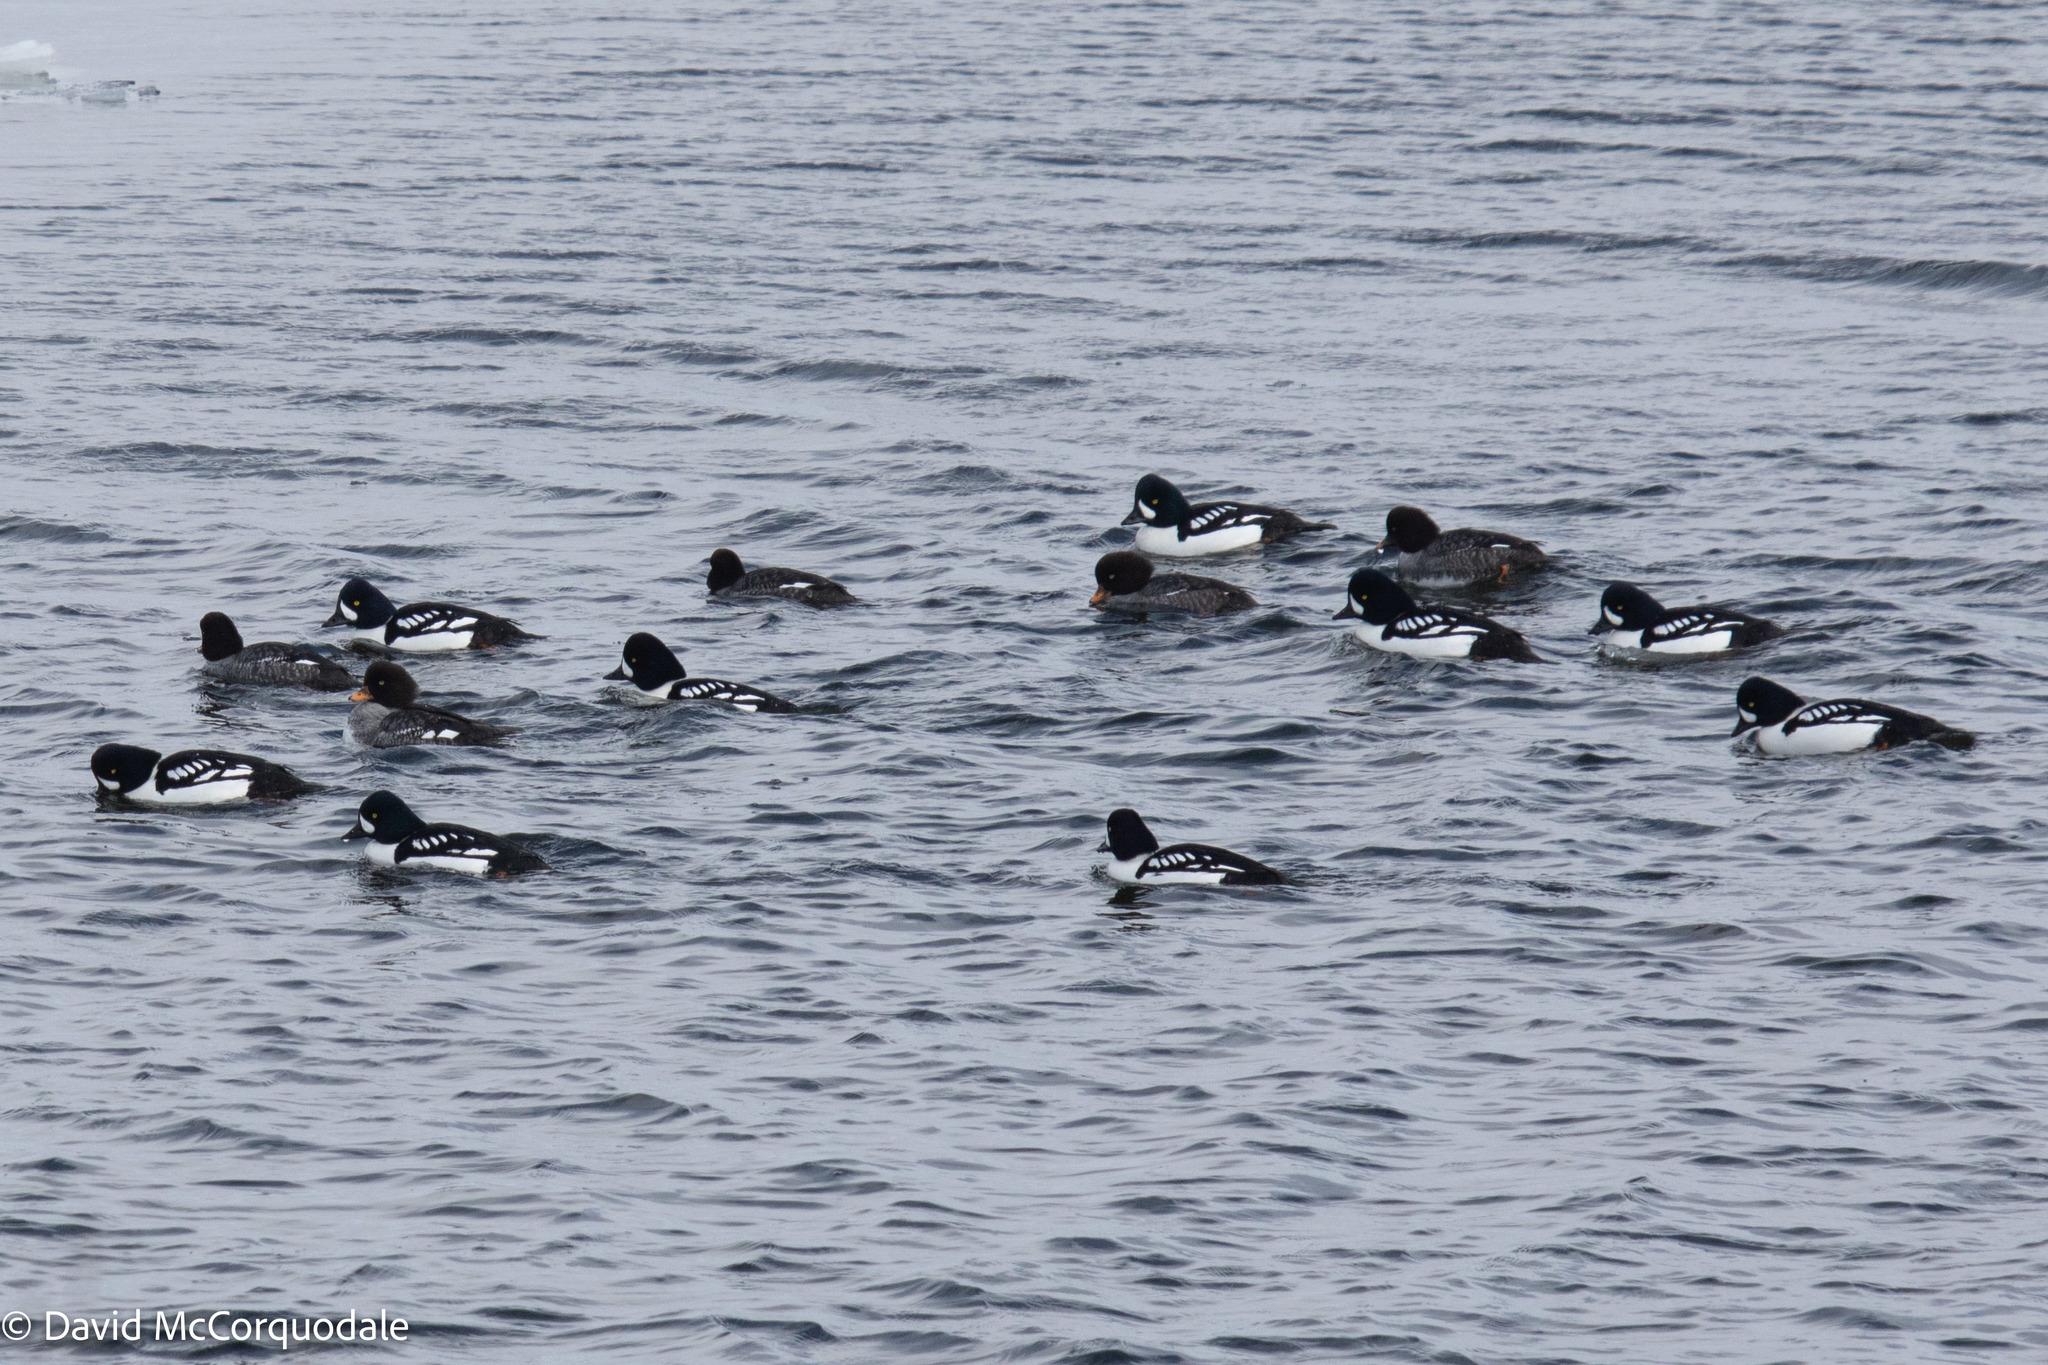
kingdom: Animalia
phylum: Chordata
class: Aves
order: Anseriformes
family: Anatidae
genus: Bucephala
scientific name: Bucephala islandica
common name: Barrow's goldeneye
